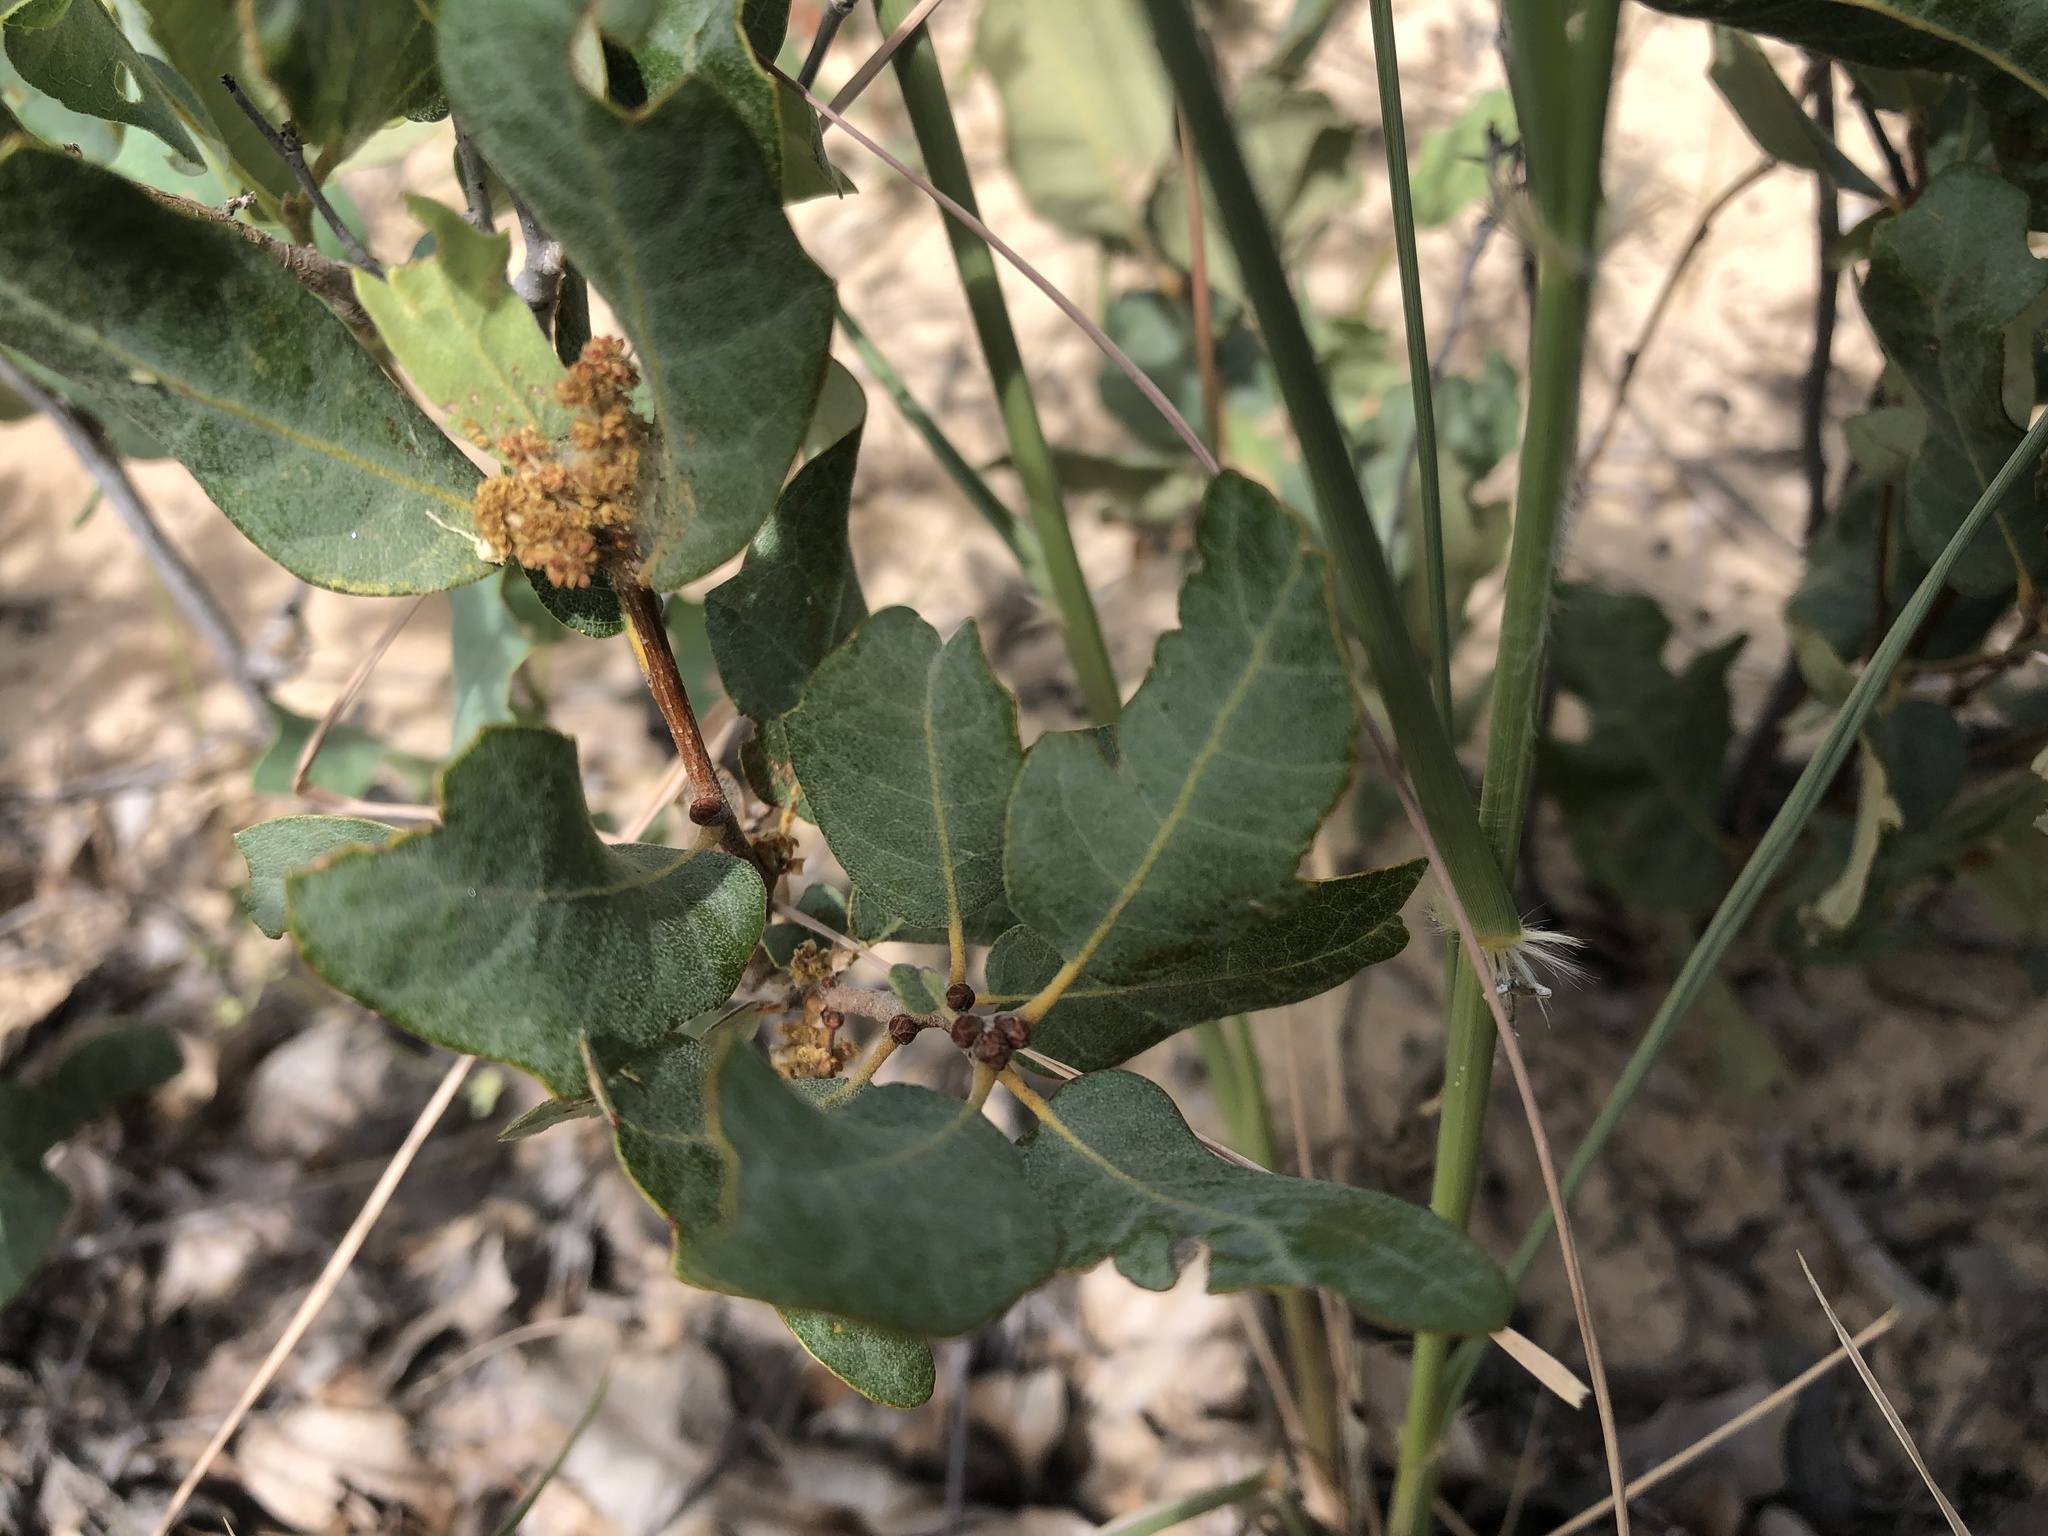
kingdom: Plantae
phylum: Tracheophyta
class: Magnoliopsida
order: Fagales
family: Fagaceae
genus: Quercus
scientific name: Quercus havardii
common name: Shinnery oak
